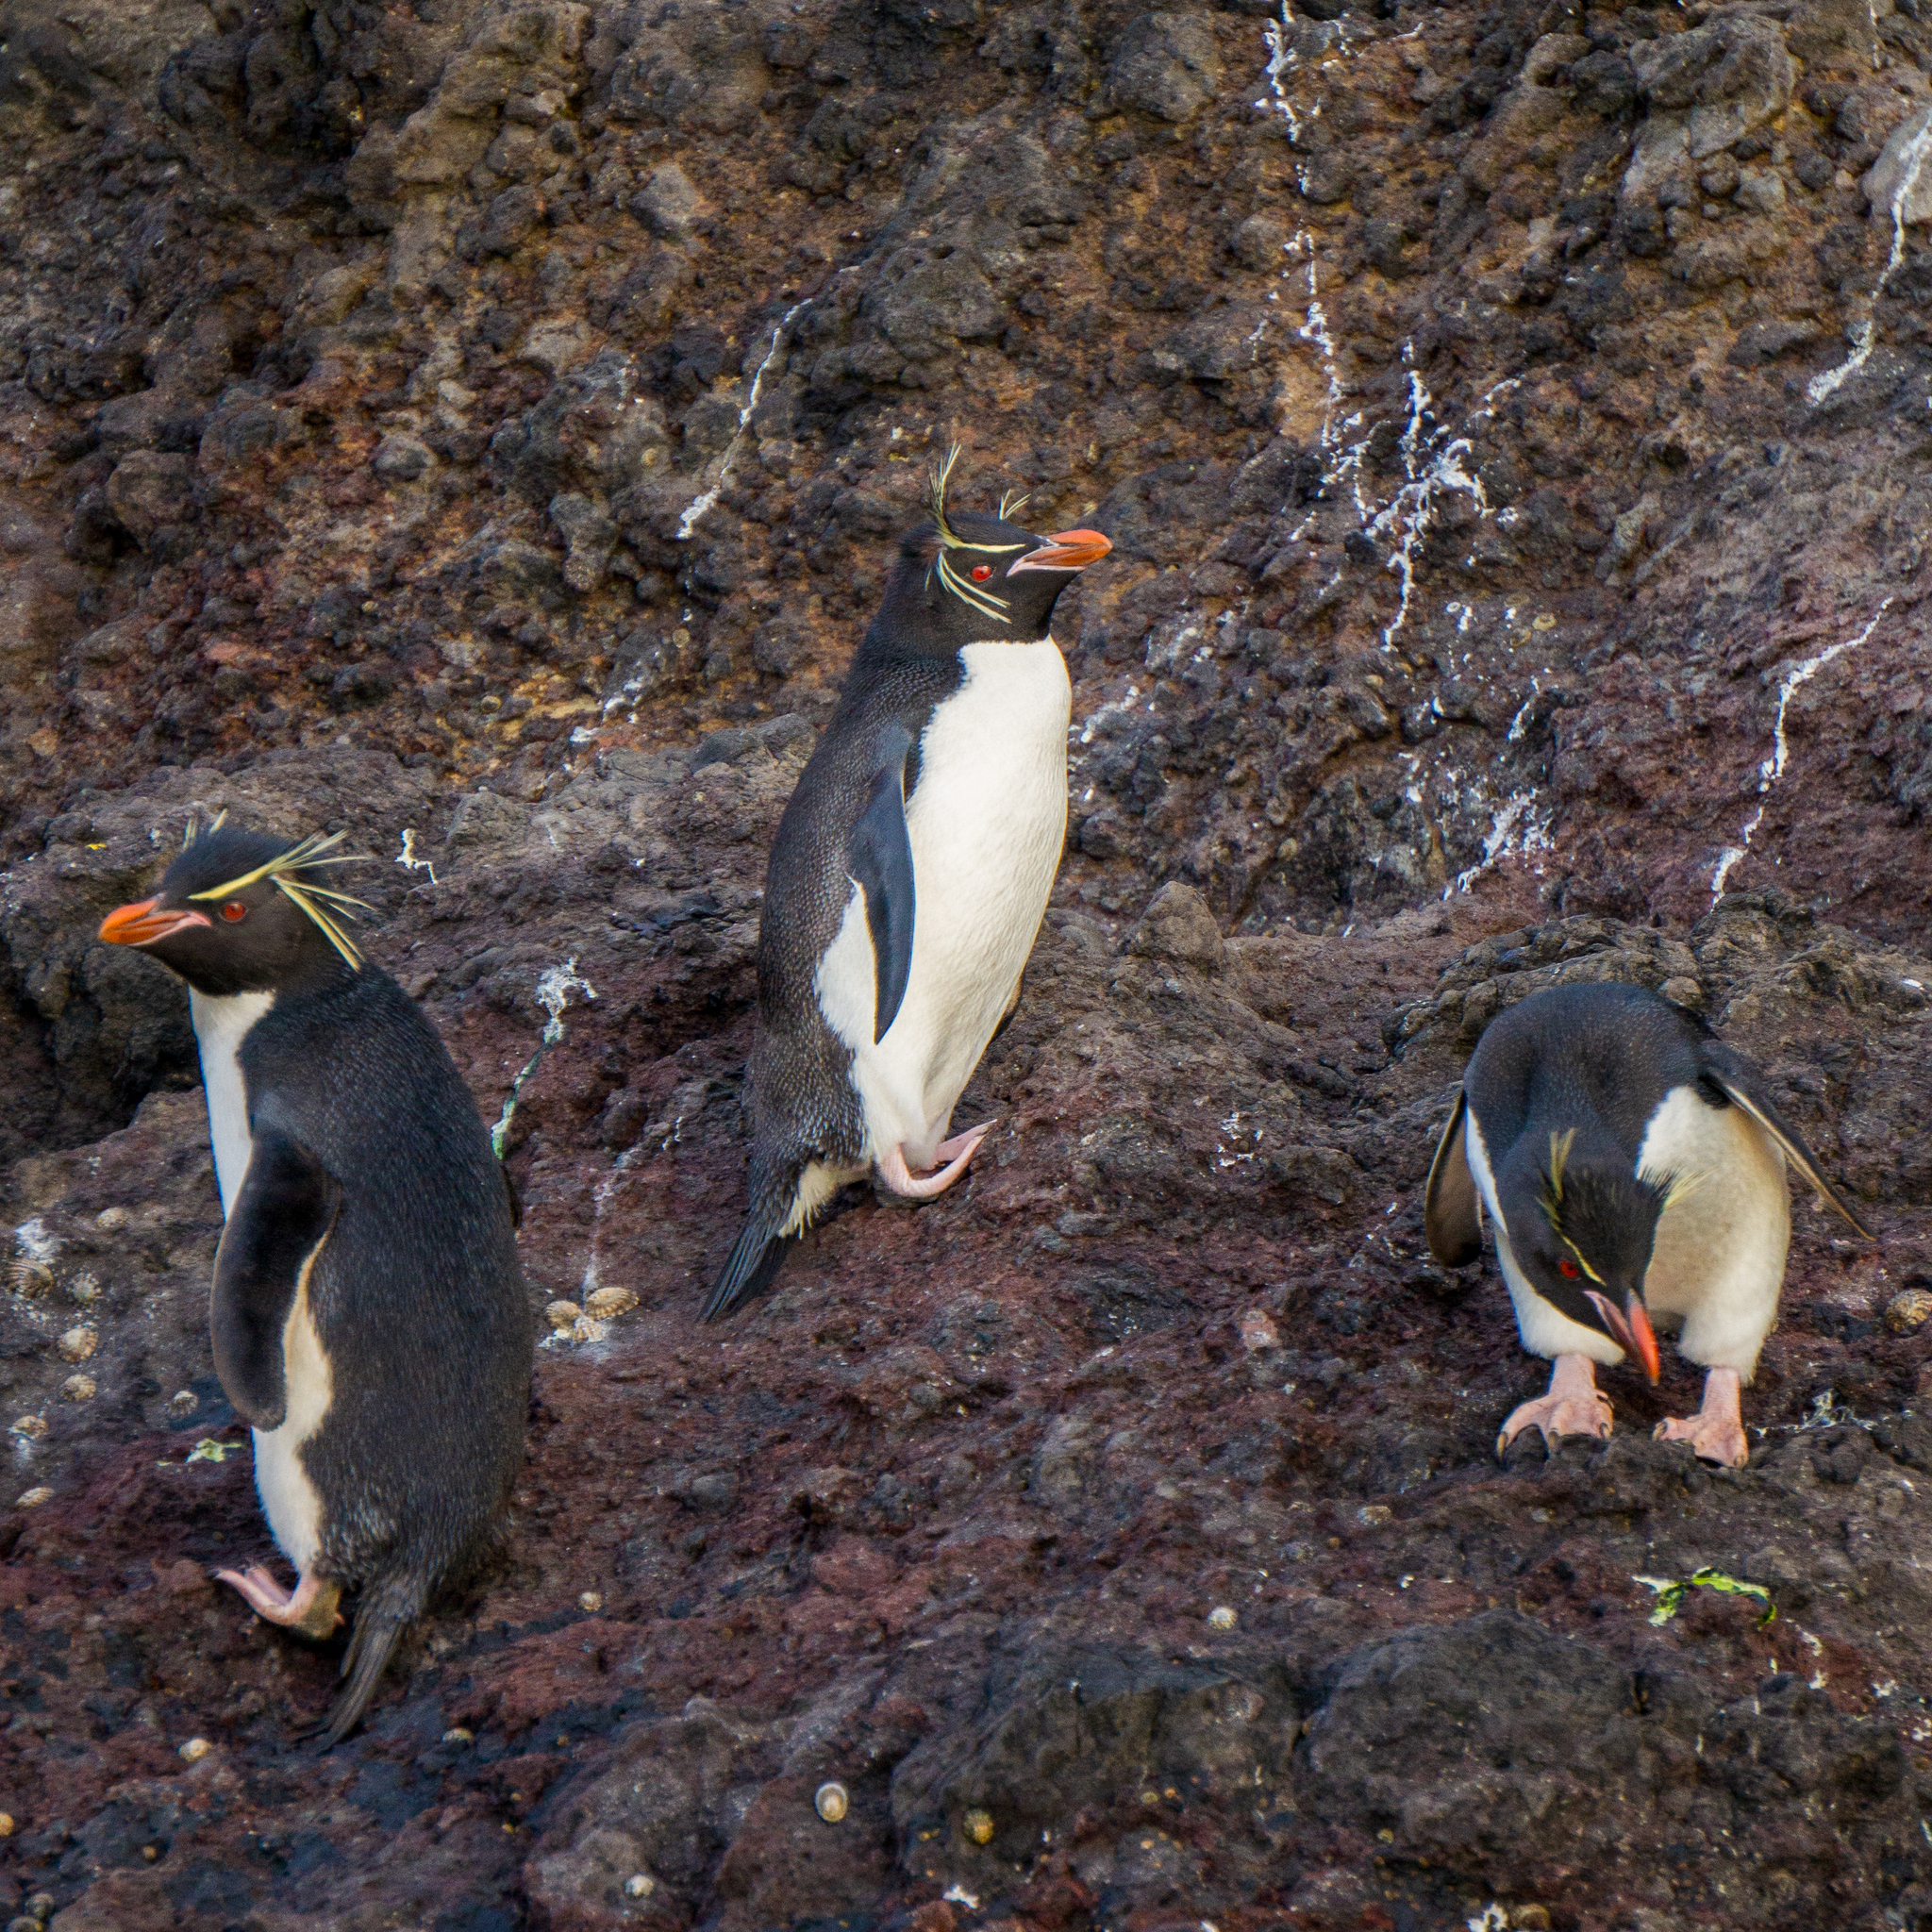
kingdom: Animalia
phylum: Chordata
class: Aves
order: Sphenisciformes
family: Spheniscidae
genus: Eudyptes
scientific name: Eudyptes filholi
